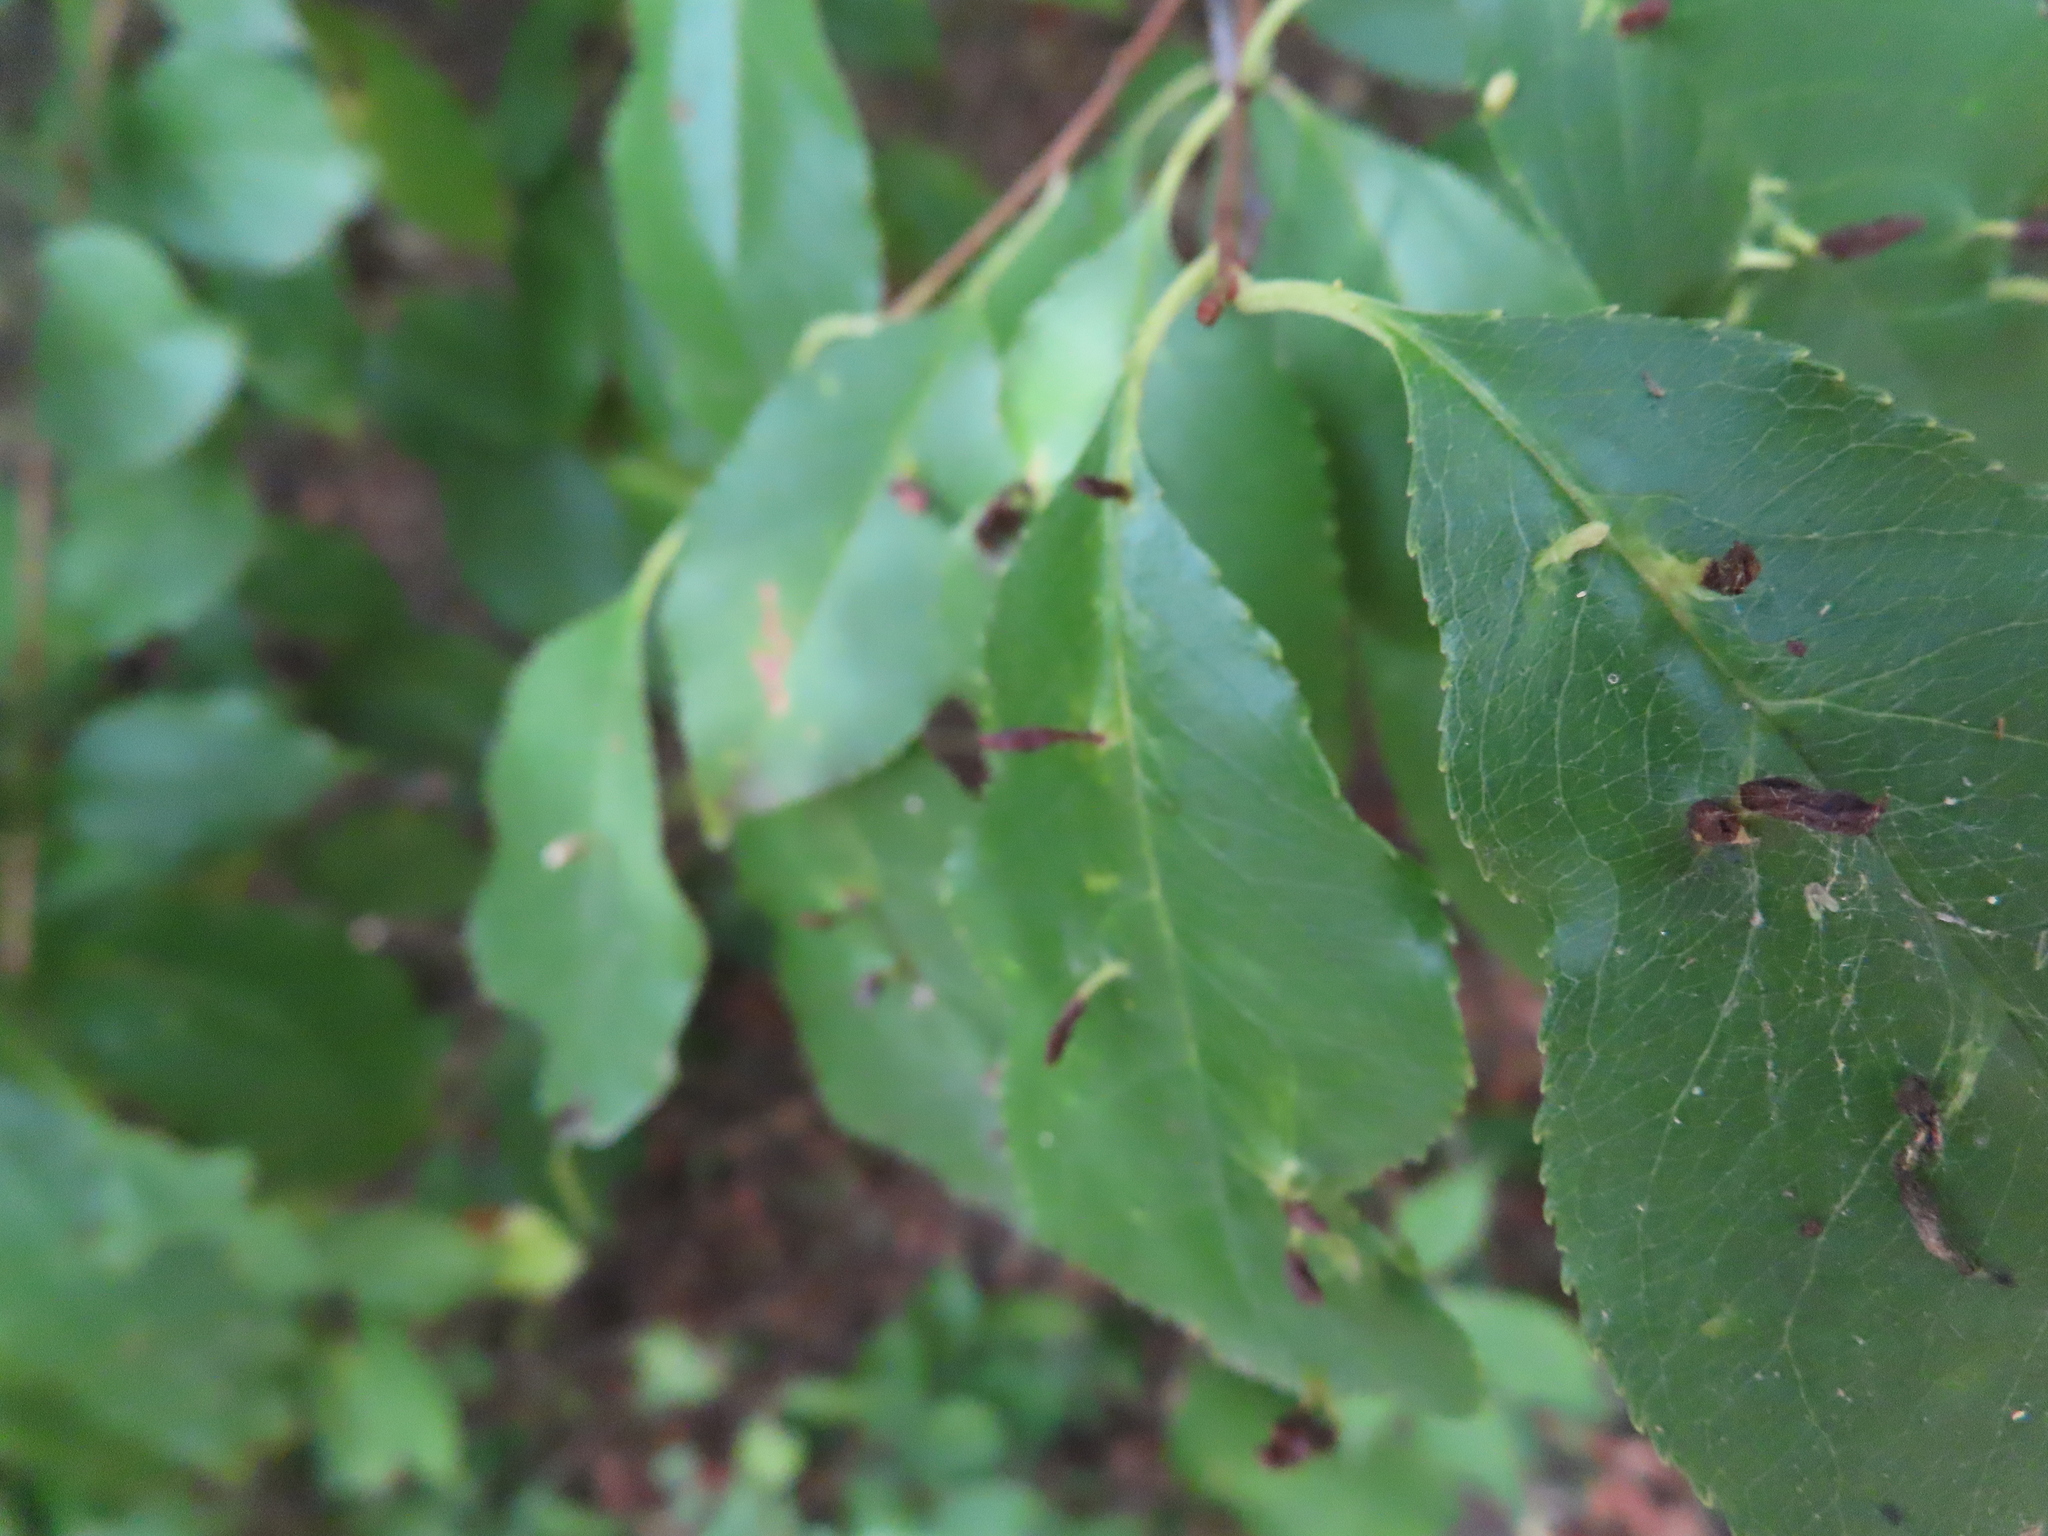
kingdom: Animalia
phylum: Arthropoda
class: Arachnida
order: Trombidiformes
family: Eriophyidae
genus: Eriophyes
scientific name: Eriophyes
